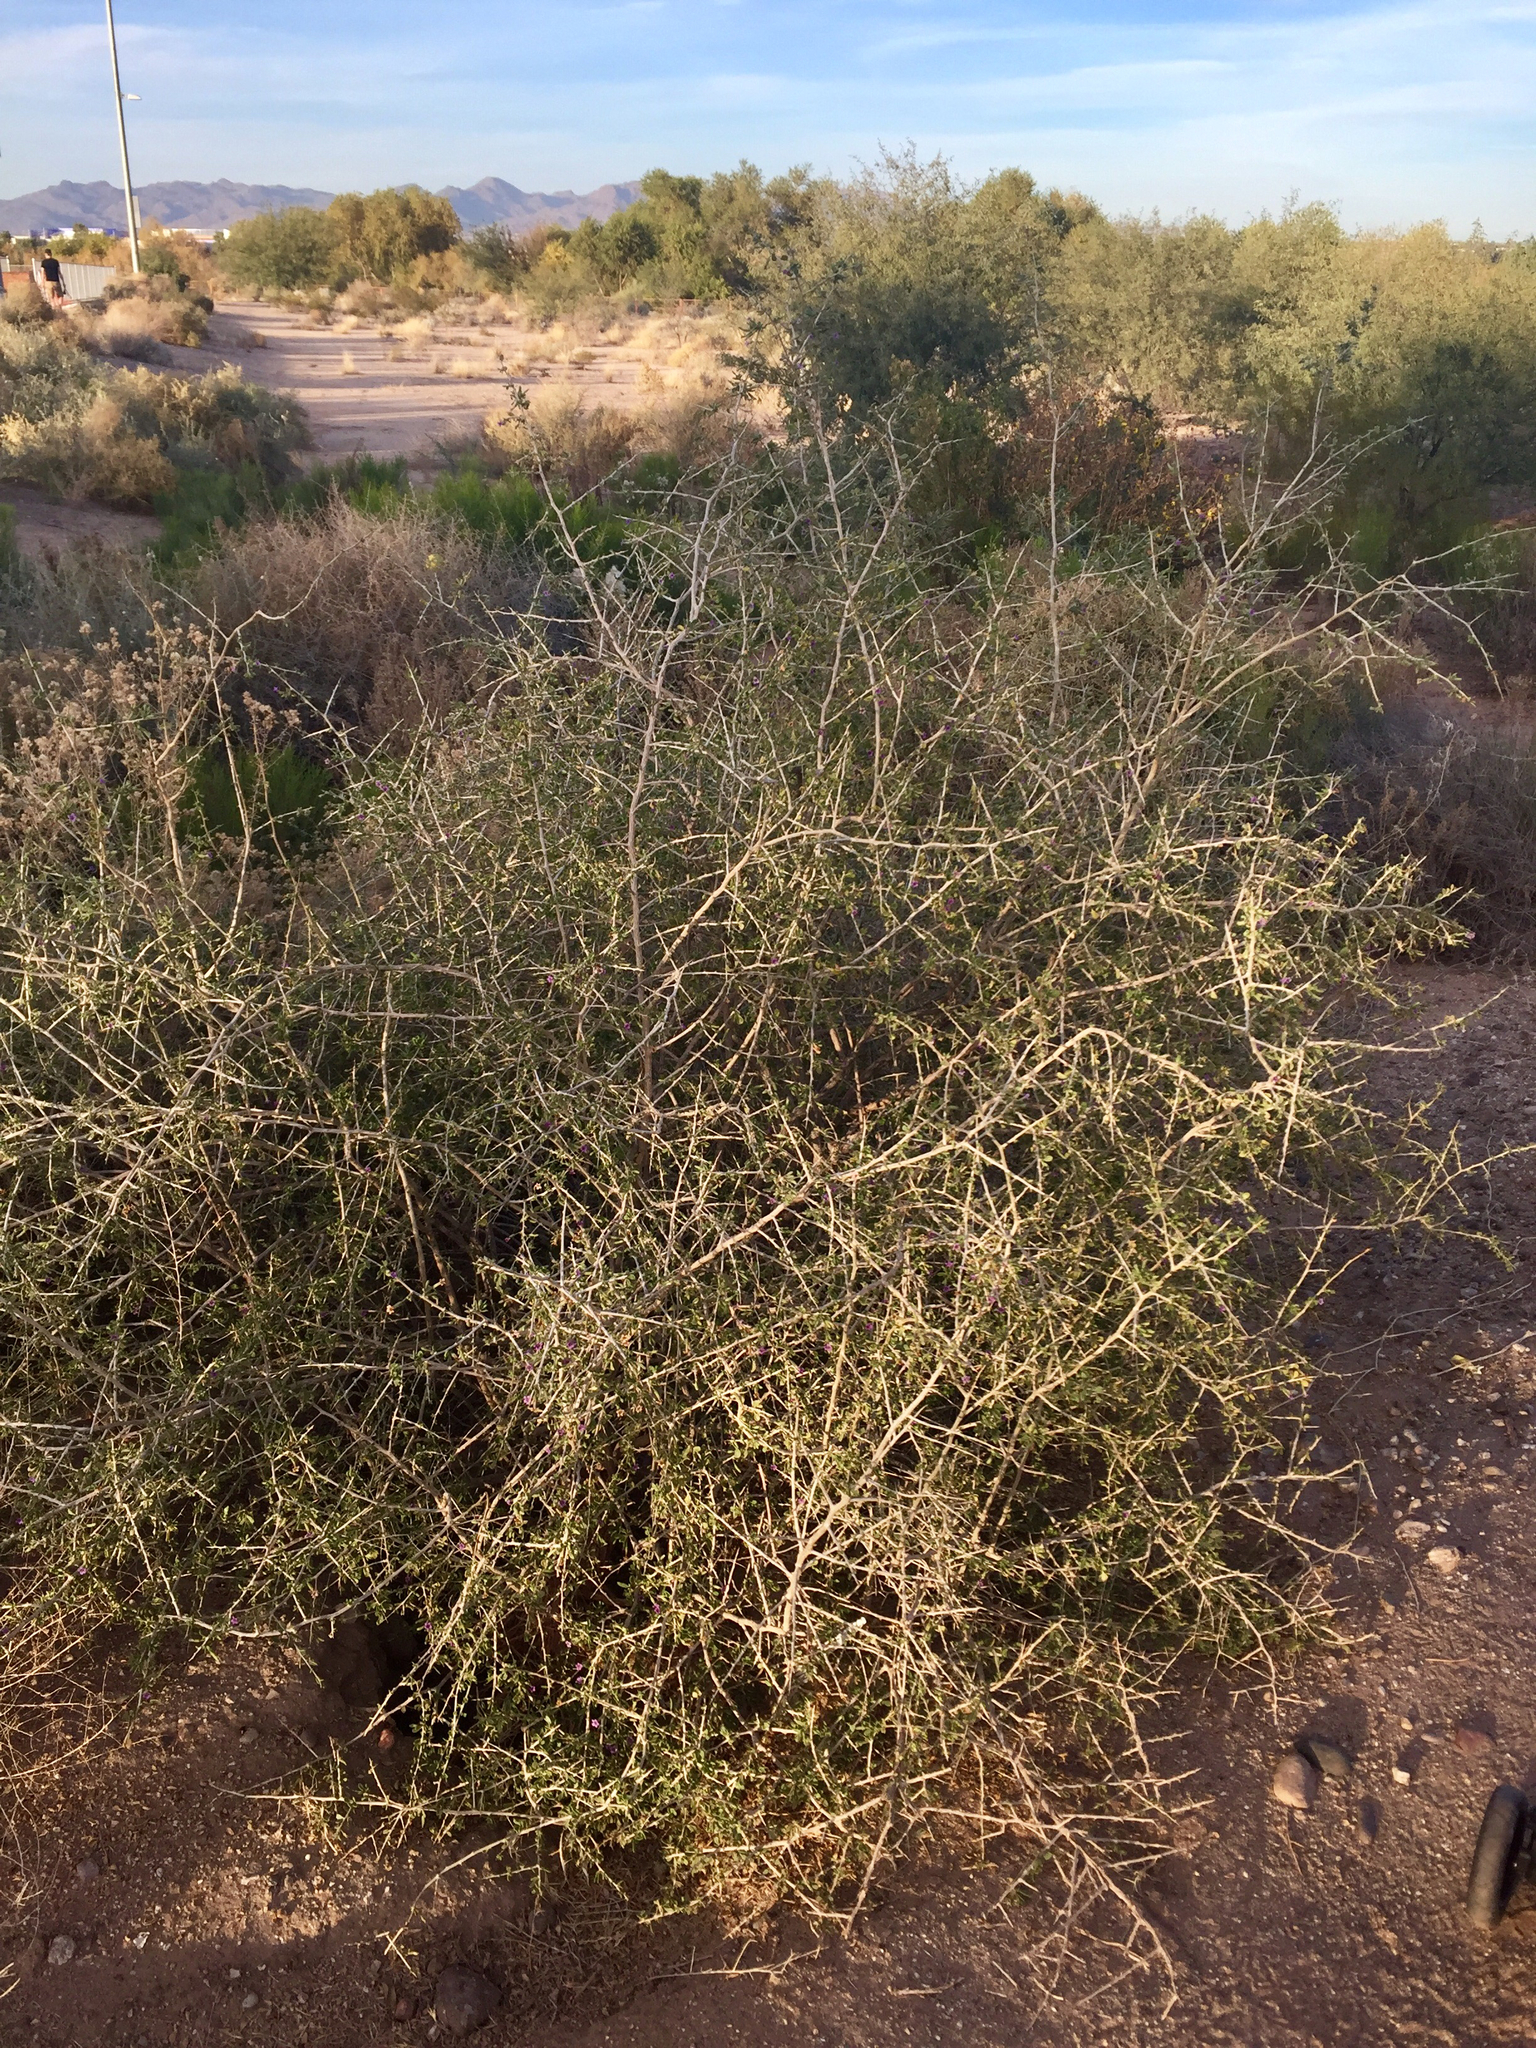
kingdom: Plantae
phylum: Tracheophyta
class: Magnoliopsida
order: Solanales
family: Solanaceae
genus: Lycium
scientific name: Lycium fremontii
